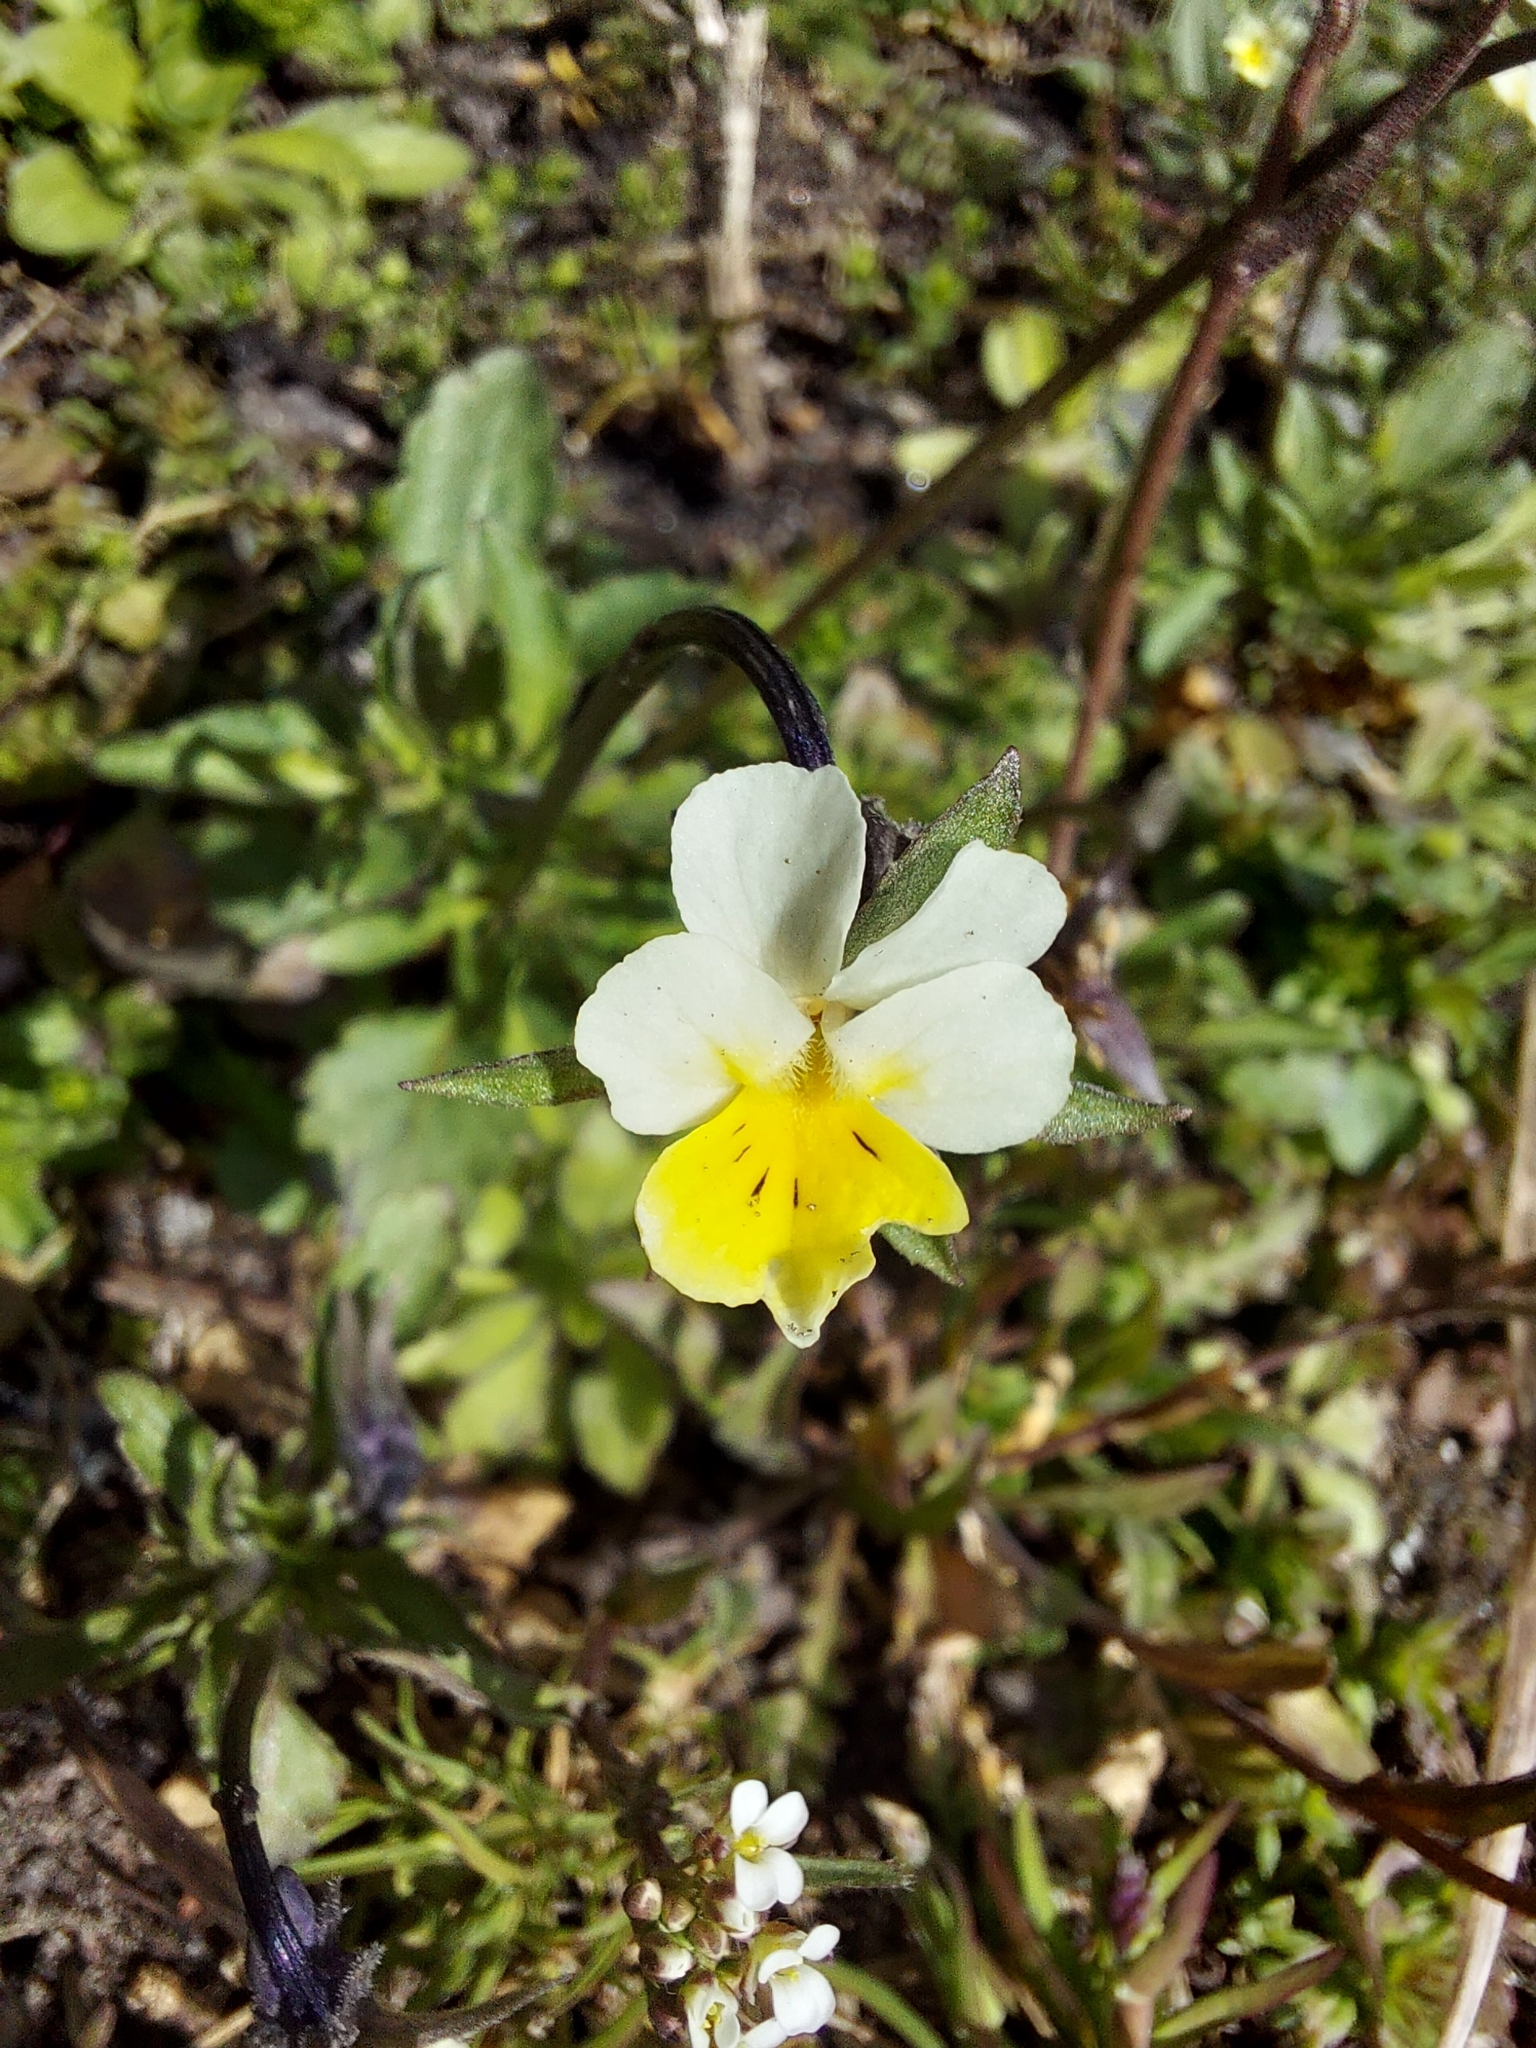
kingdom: Plantae
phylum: Tracheophyta
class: Magnoliopsida
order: Malpighiales
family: Violaceae
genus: Viola
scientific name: Viola arvensis
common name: Field pansy
